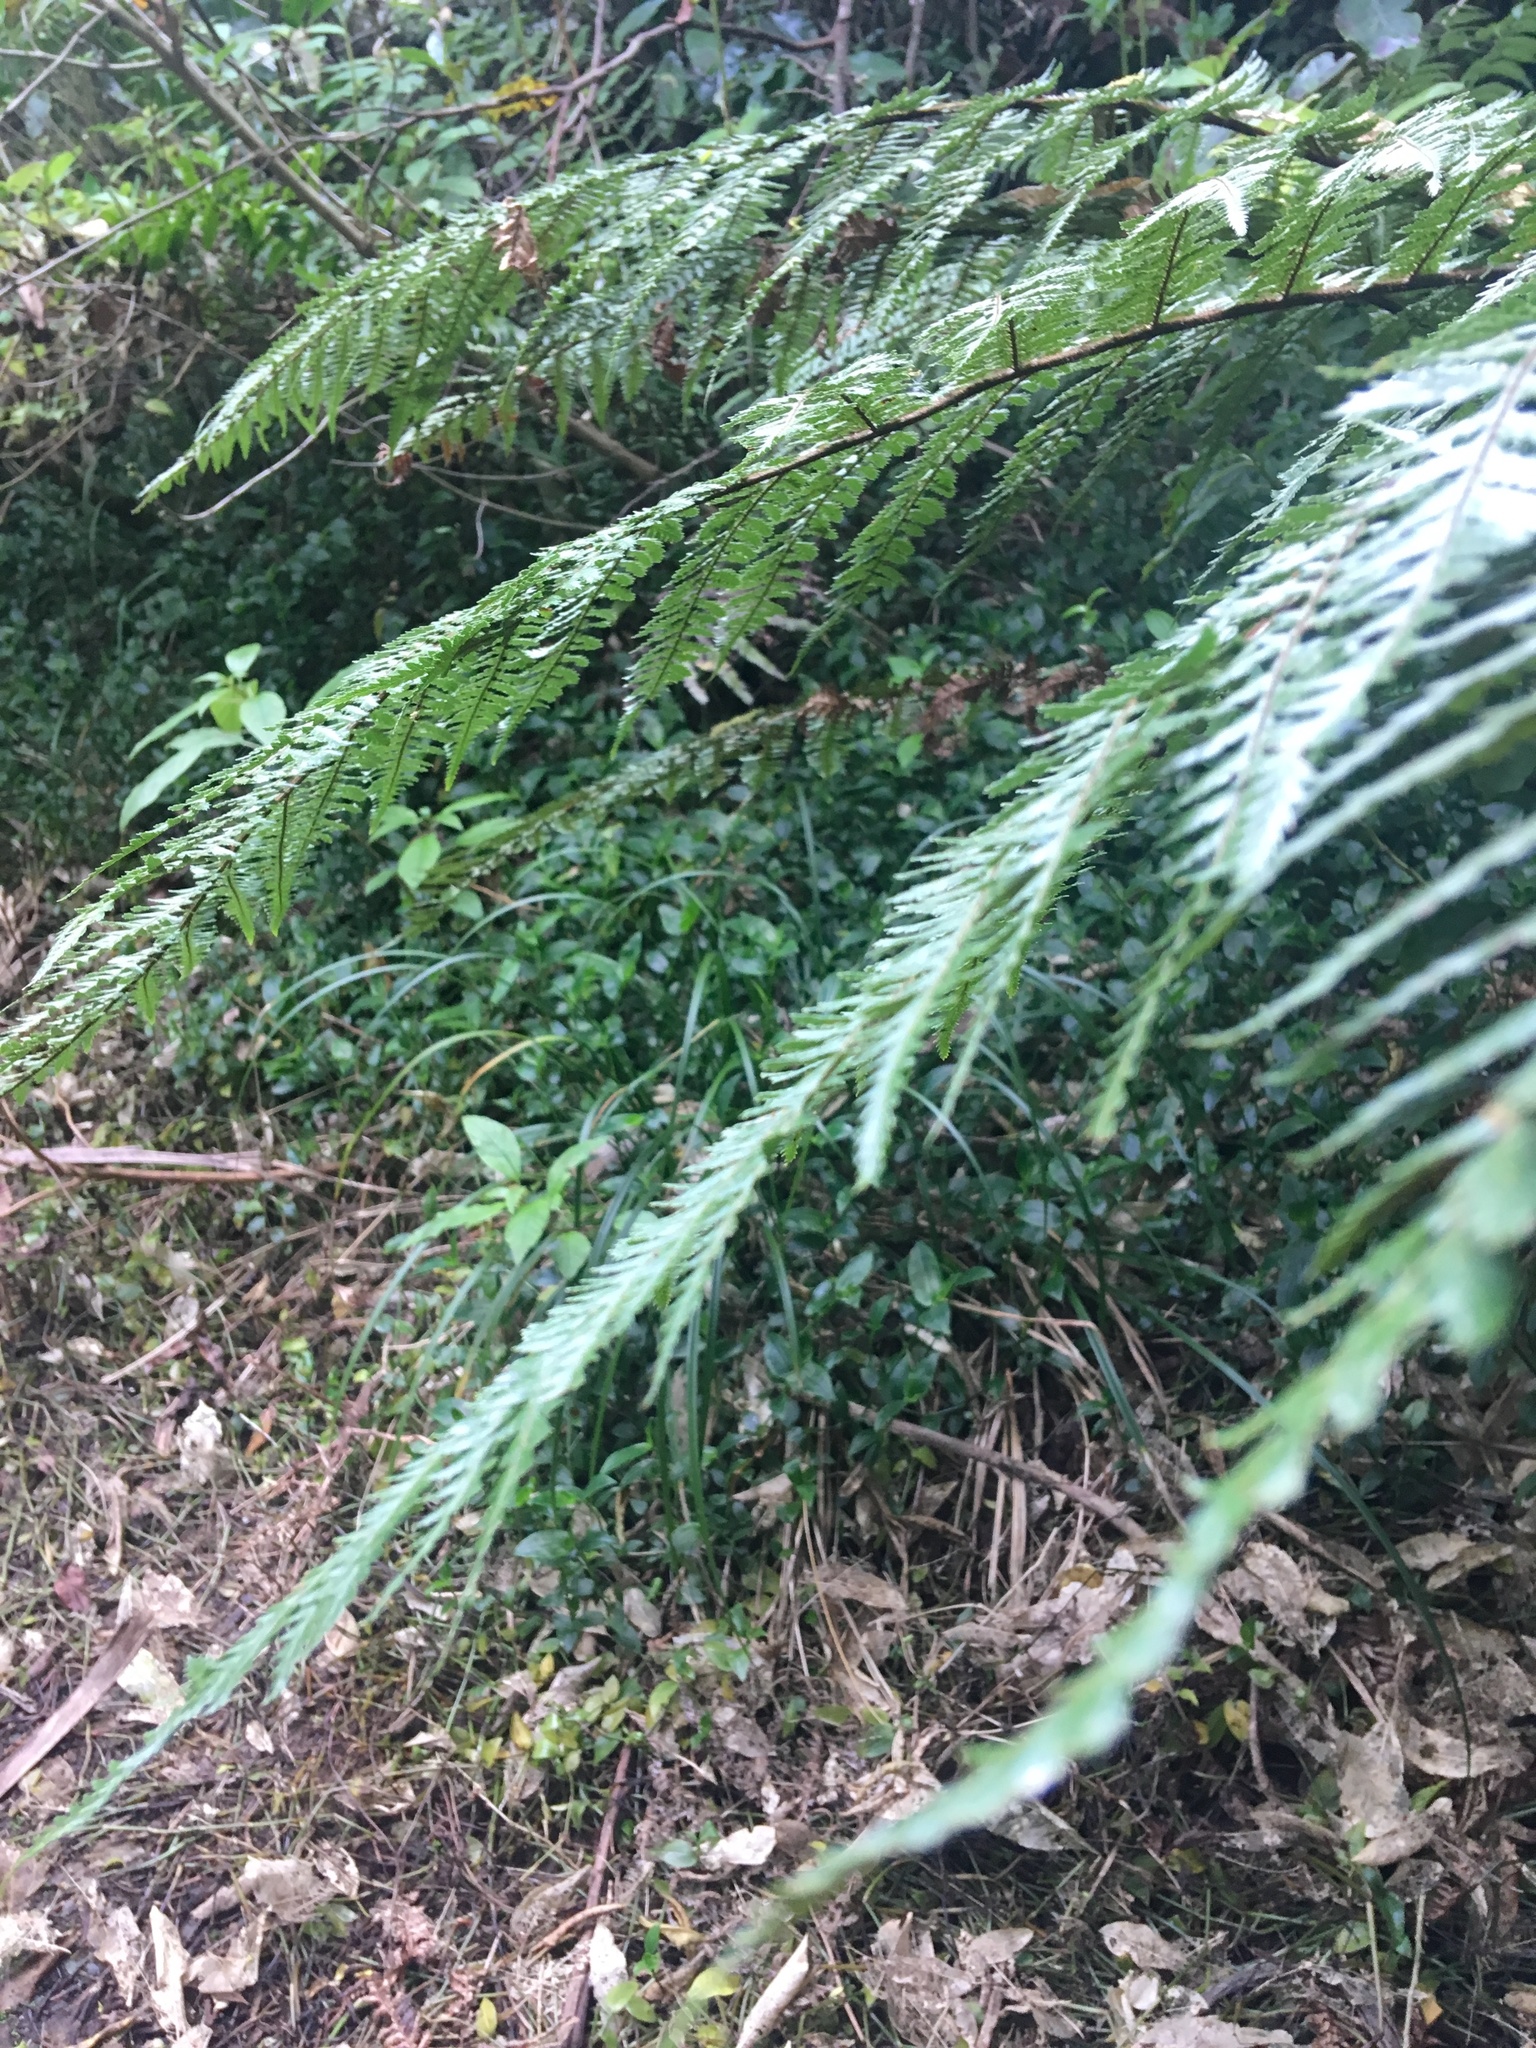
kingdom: Plantae
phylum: Tracheophyta
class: Liliopsida
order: Commelinales
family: Commelinaceae
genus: Tradescantia
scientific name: Tradescantia fluminensis
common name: Wandering-jew
